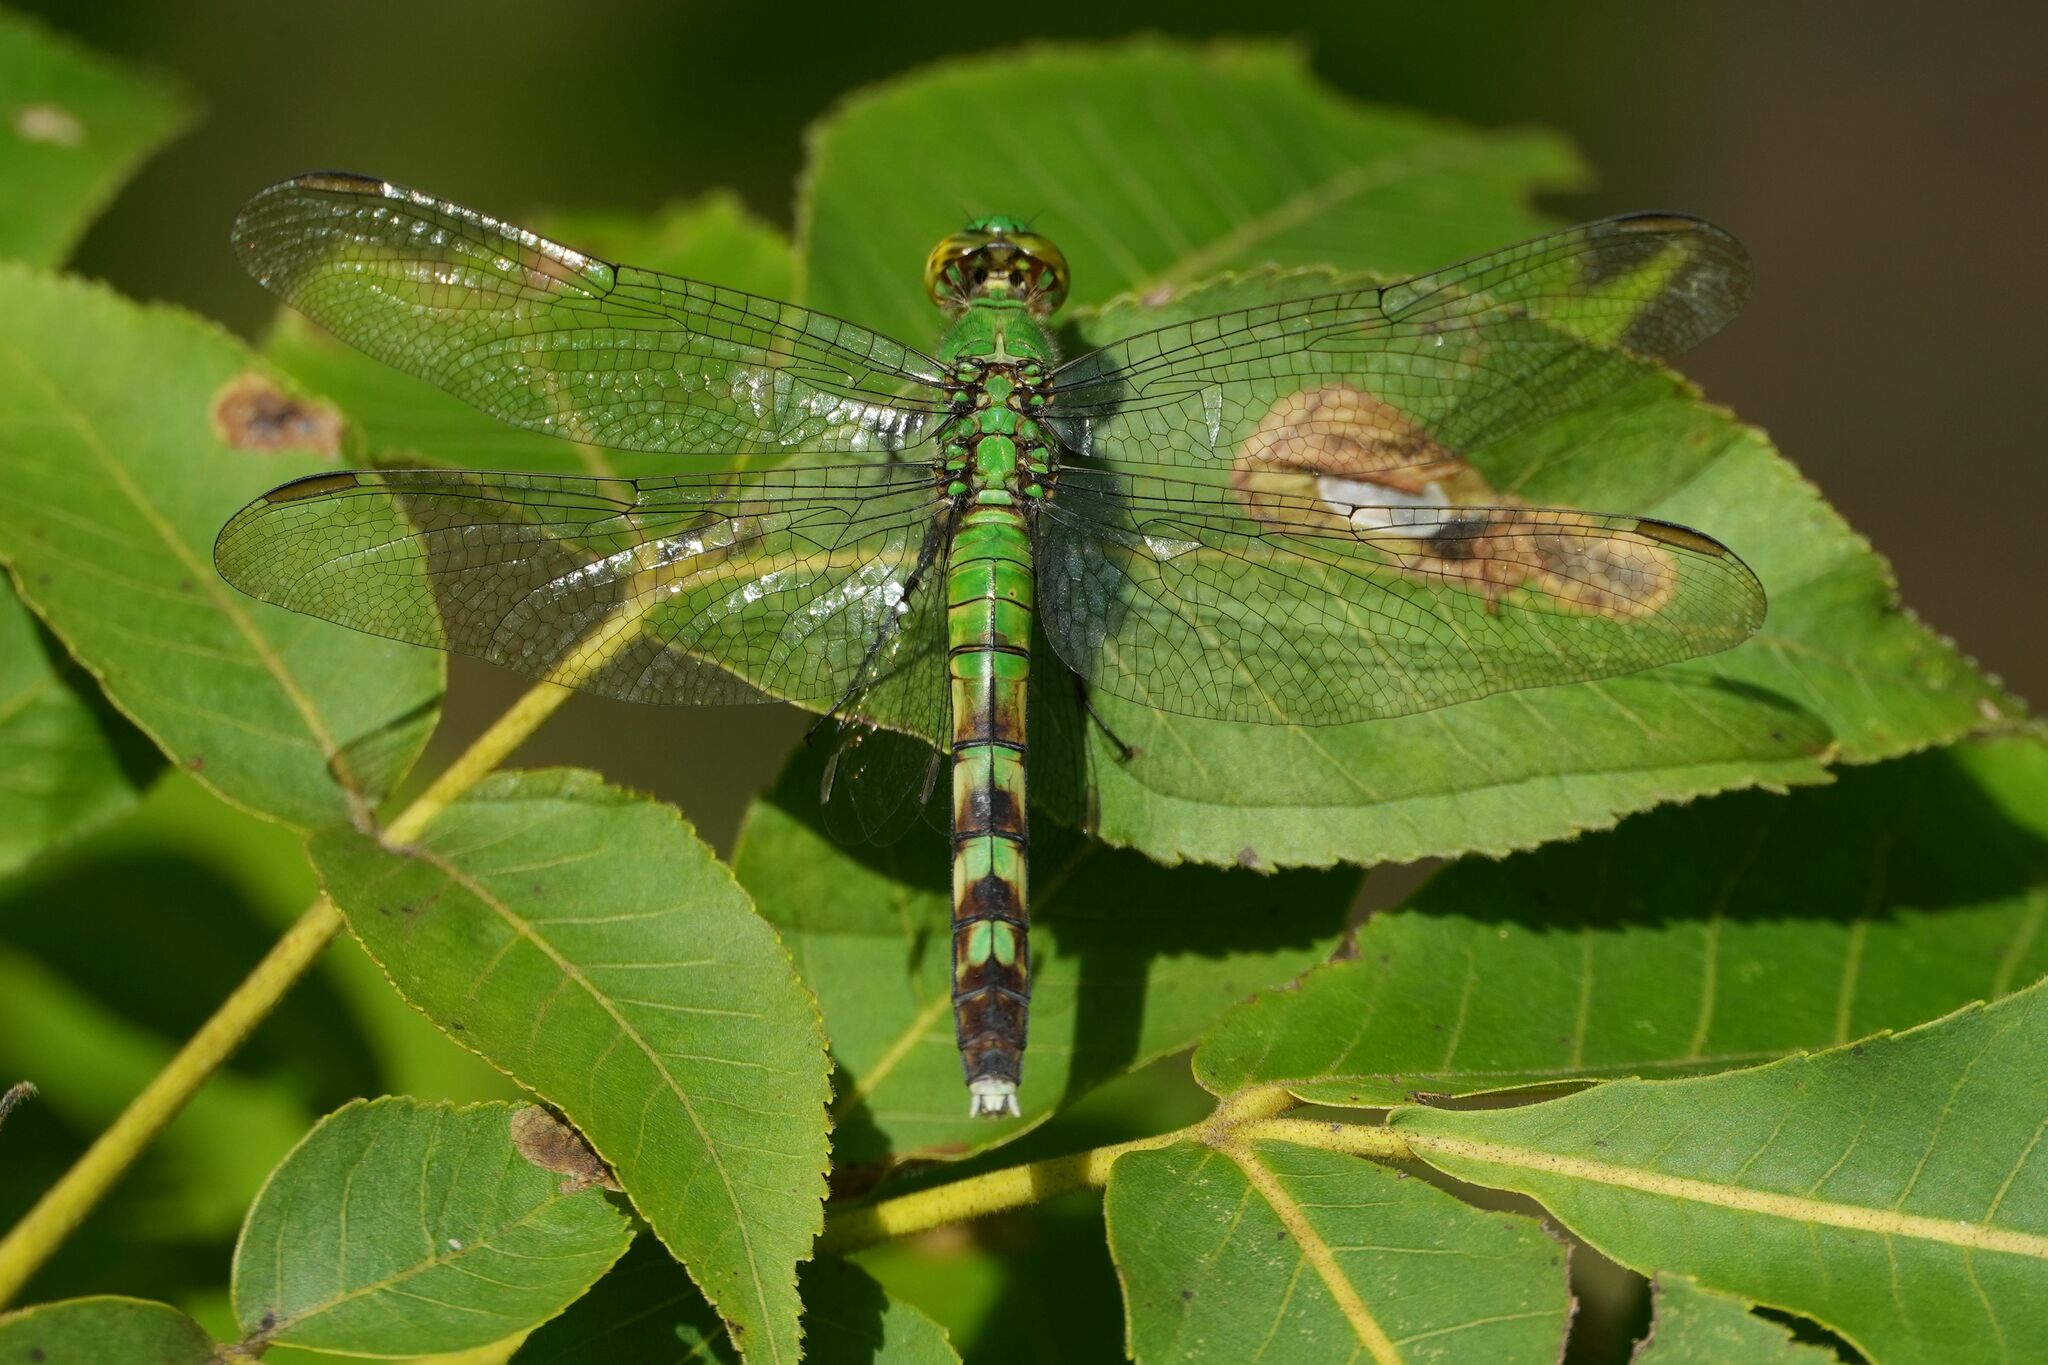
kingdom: Animalia
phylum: Arthropoda
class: Insecta
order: Odonata
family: Libellulidae
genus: Erythemis
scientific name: Erythemis simplicicollis
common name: Eastern pondhawk
